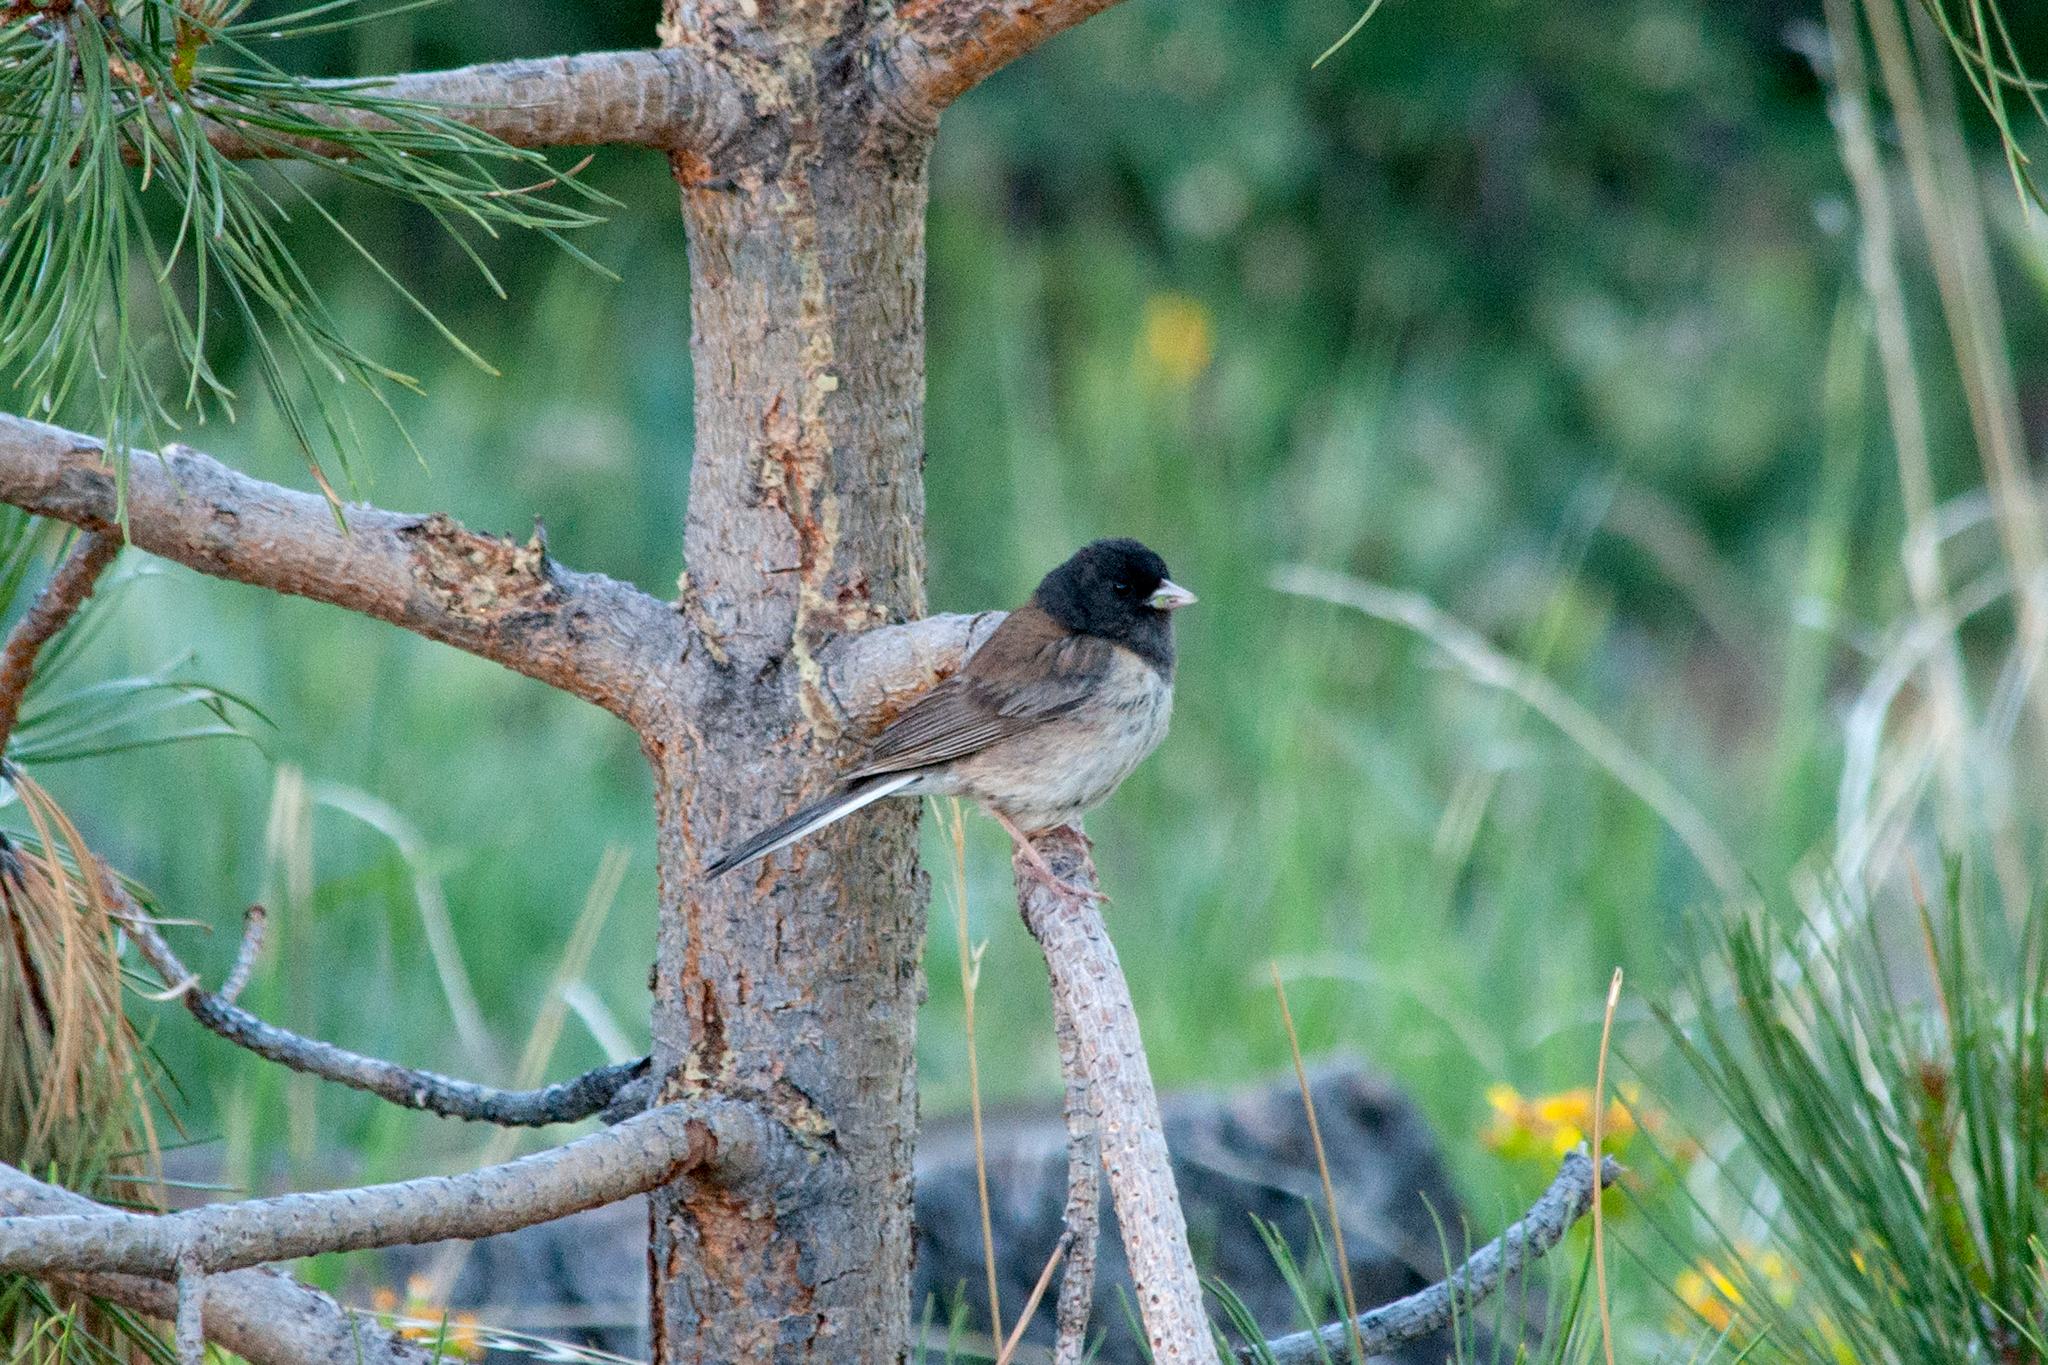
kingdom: Animalia
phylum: Chordata
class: Aves
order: Passeriformes
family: Passerellidae
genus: Junco
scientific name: Junco hyemalis
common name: Dark-eyed junco
